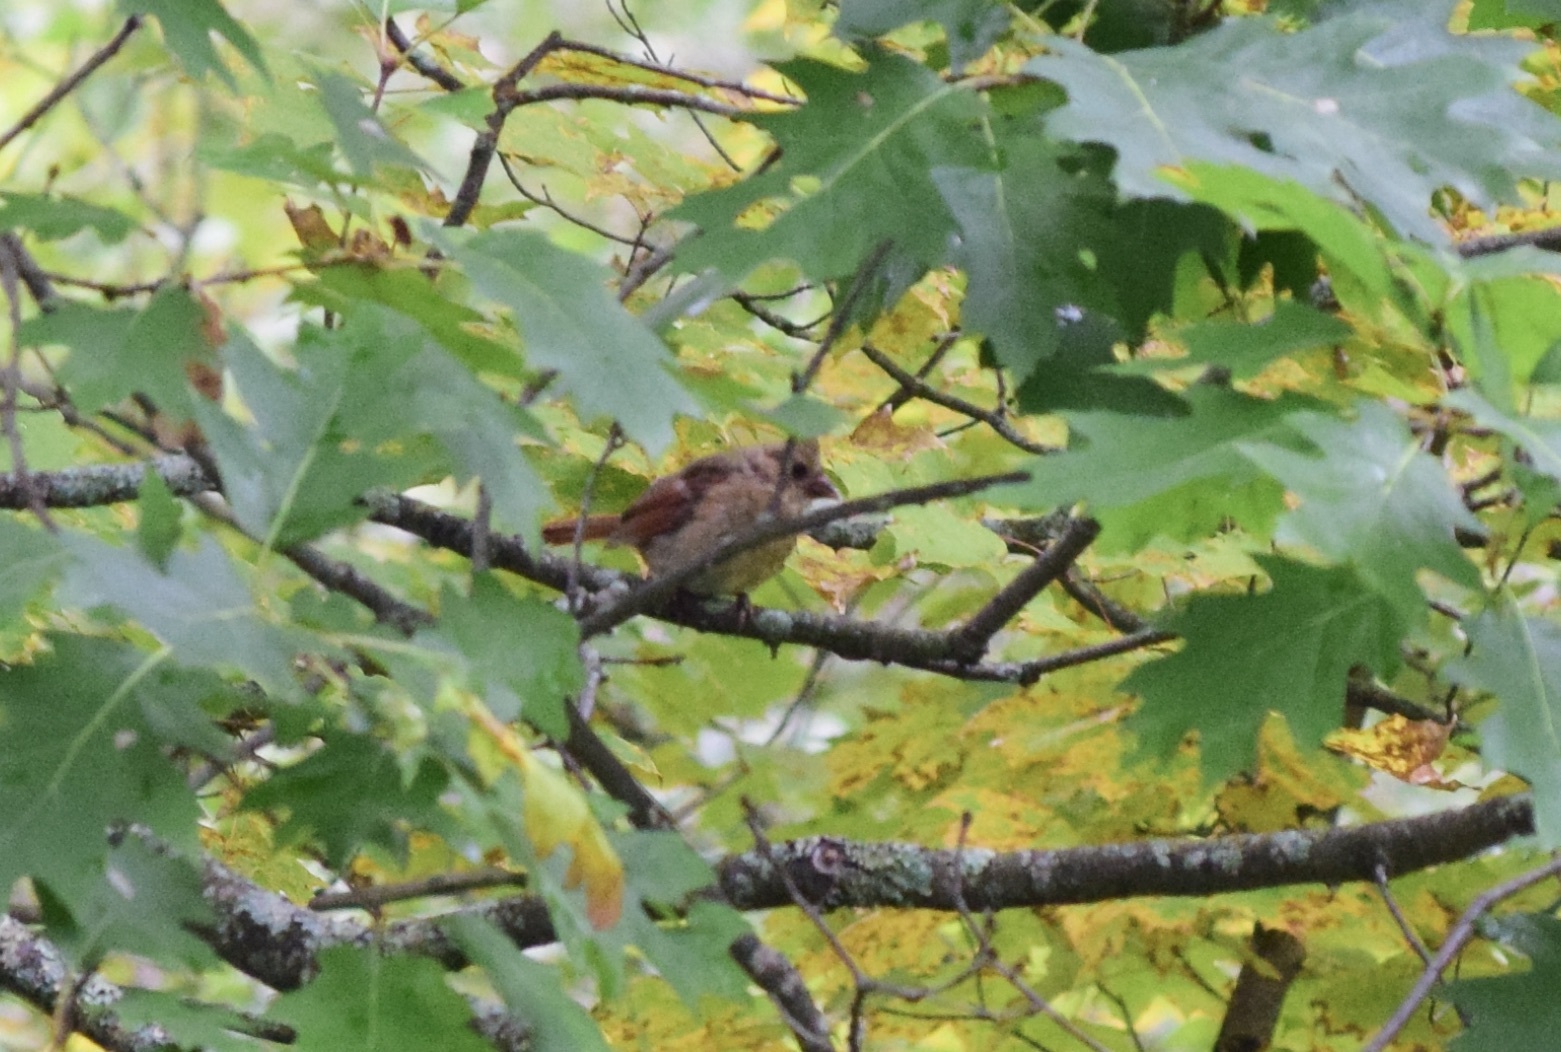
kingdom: Animalia
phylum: Chordata
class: Aves
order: Passeriformes
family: Cardinalidae
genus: Cardinalis
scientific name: Cardinalis cardinalis
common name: Northern cardinal
